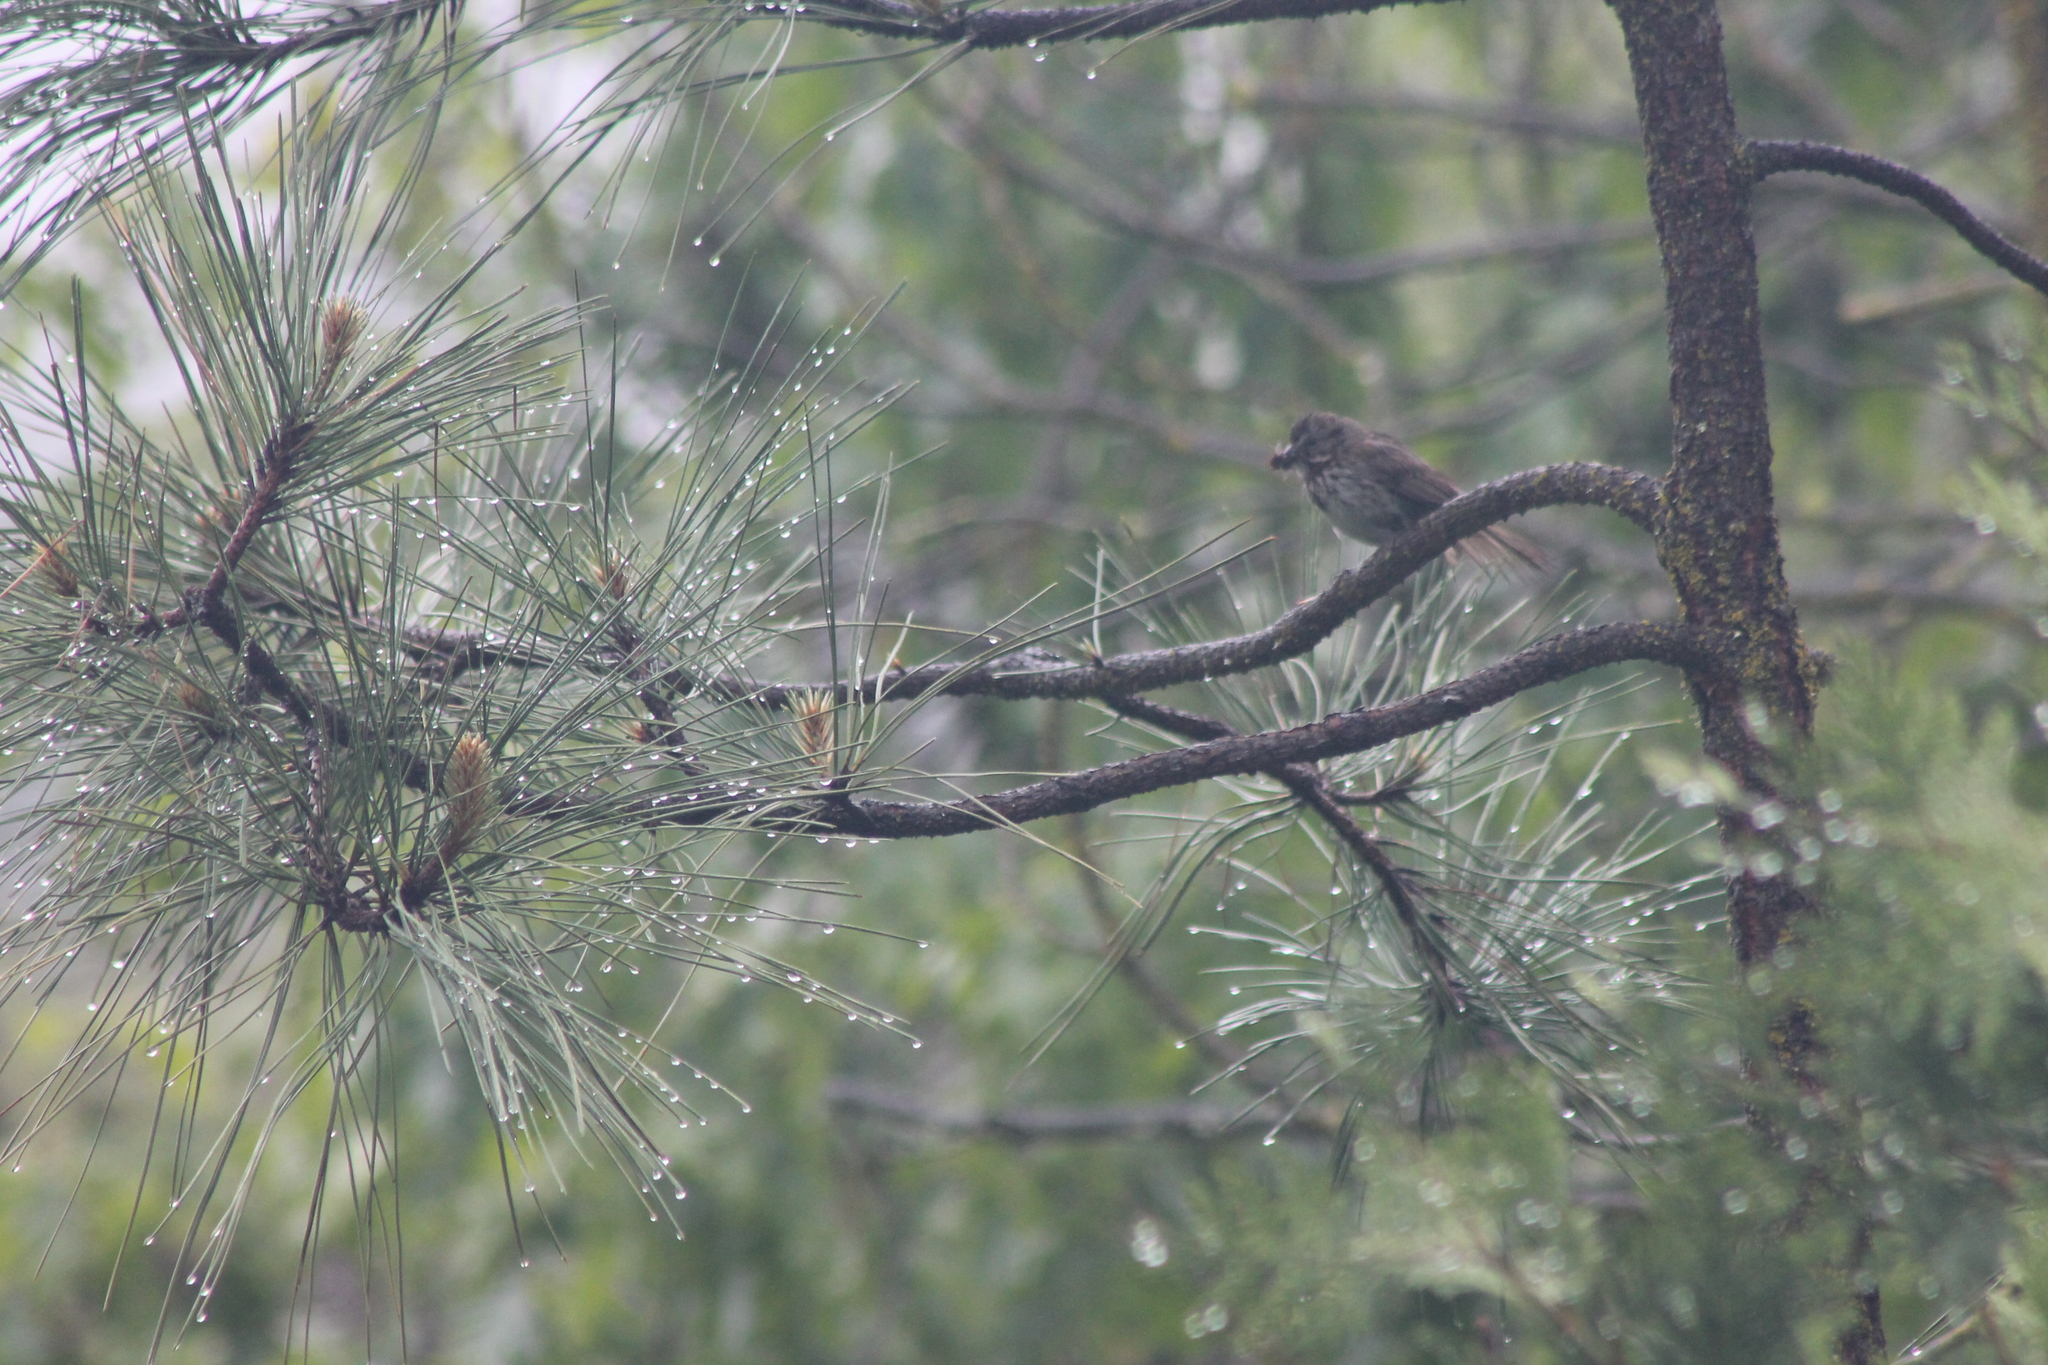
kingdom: Animalia
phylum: Chordata
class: Aves
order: Passeriformes
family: Passerellidae
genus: Melospiza
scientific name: Melospiza melodia
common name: Song sparrow
